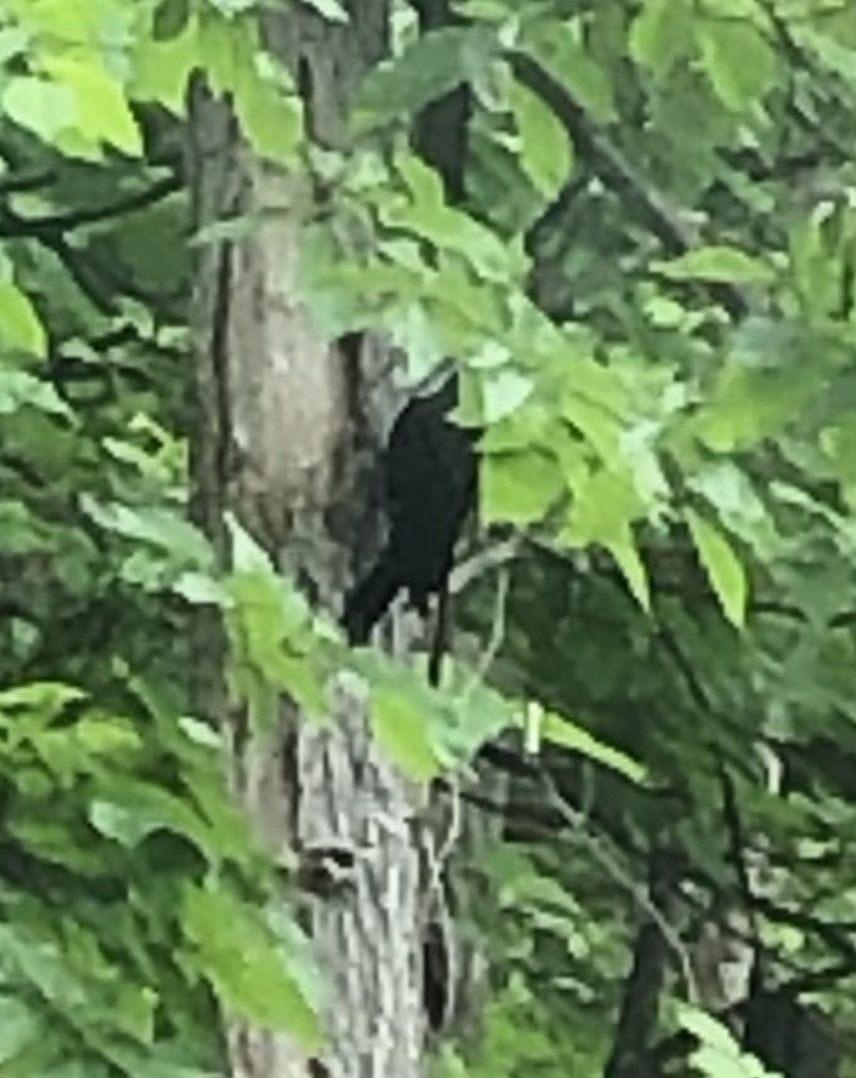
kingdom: Animalia
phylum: Chordata
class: Aves
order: Piciformes
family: Picidae
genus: Dryocopus
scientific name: Dryocopus pileatus
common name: Pileated woodpecker
